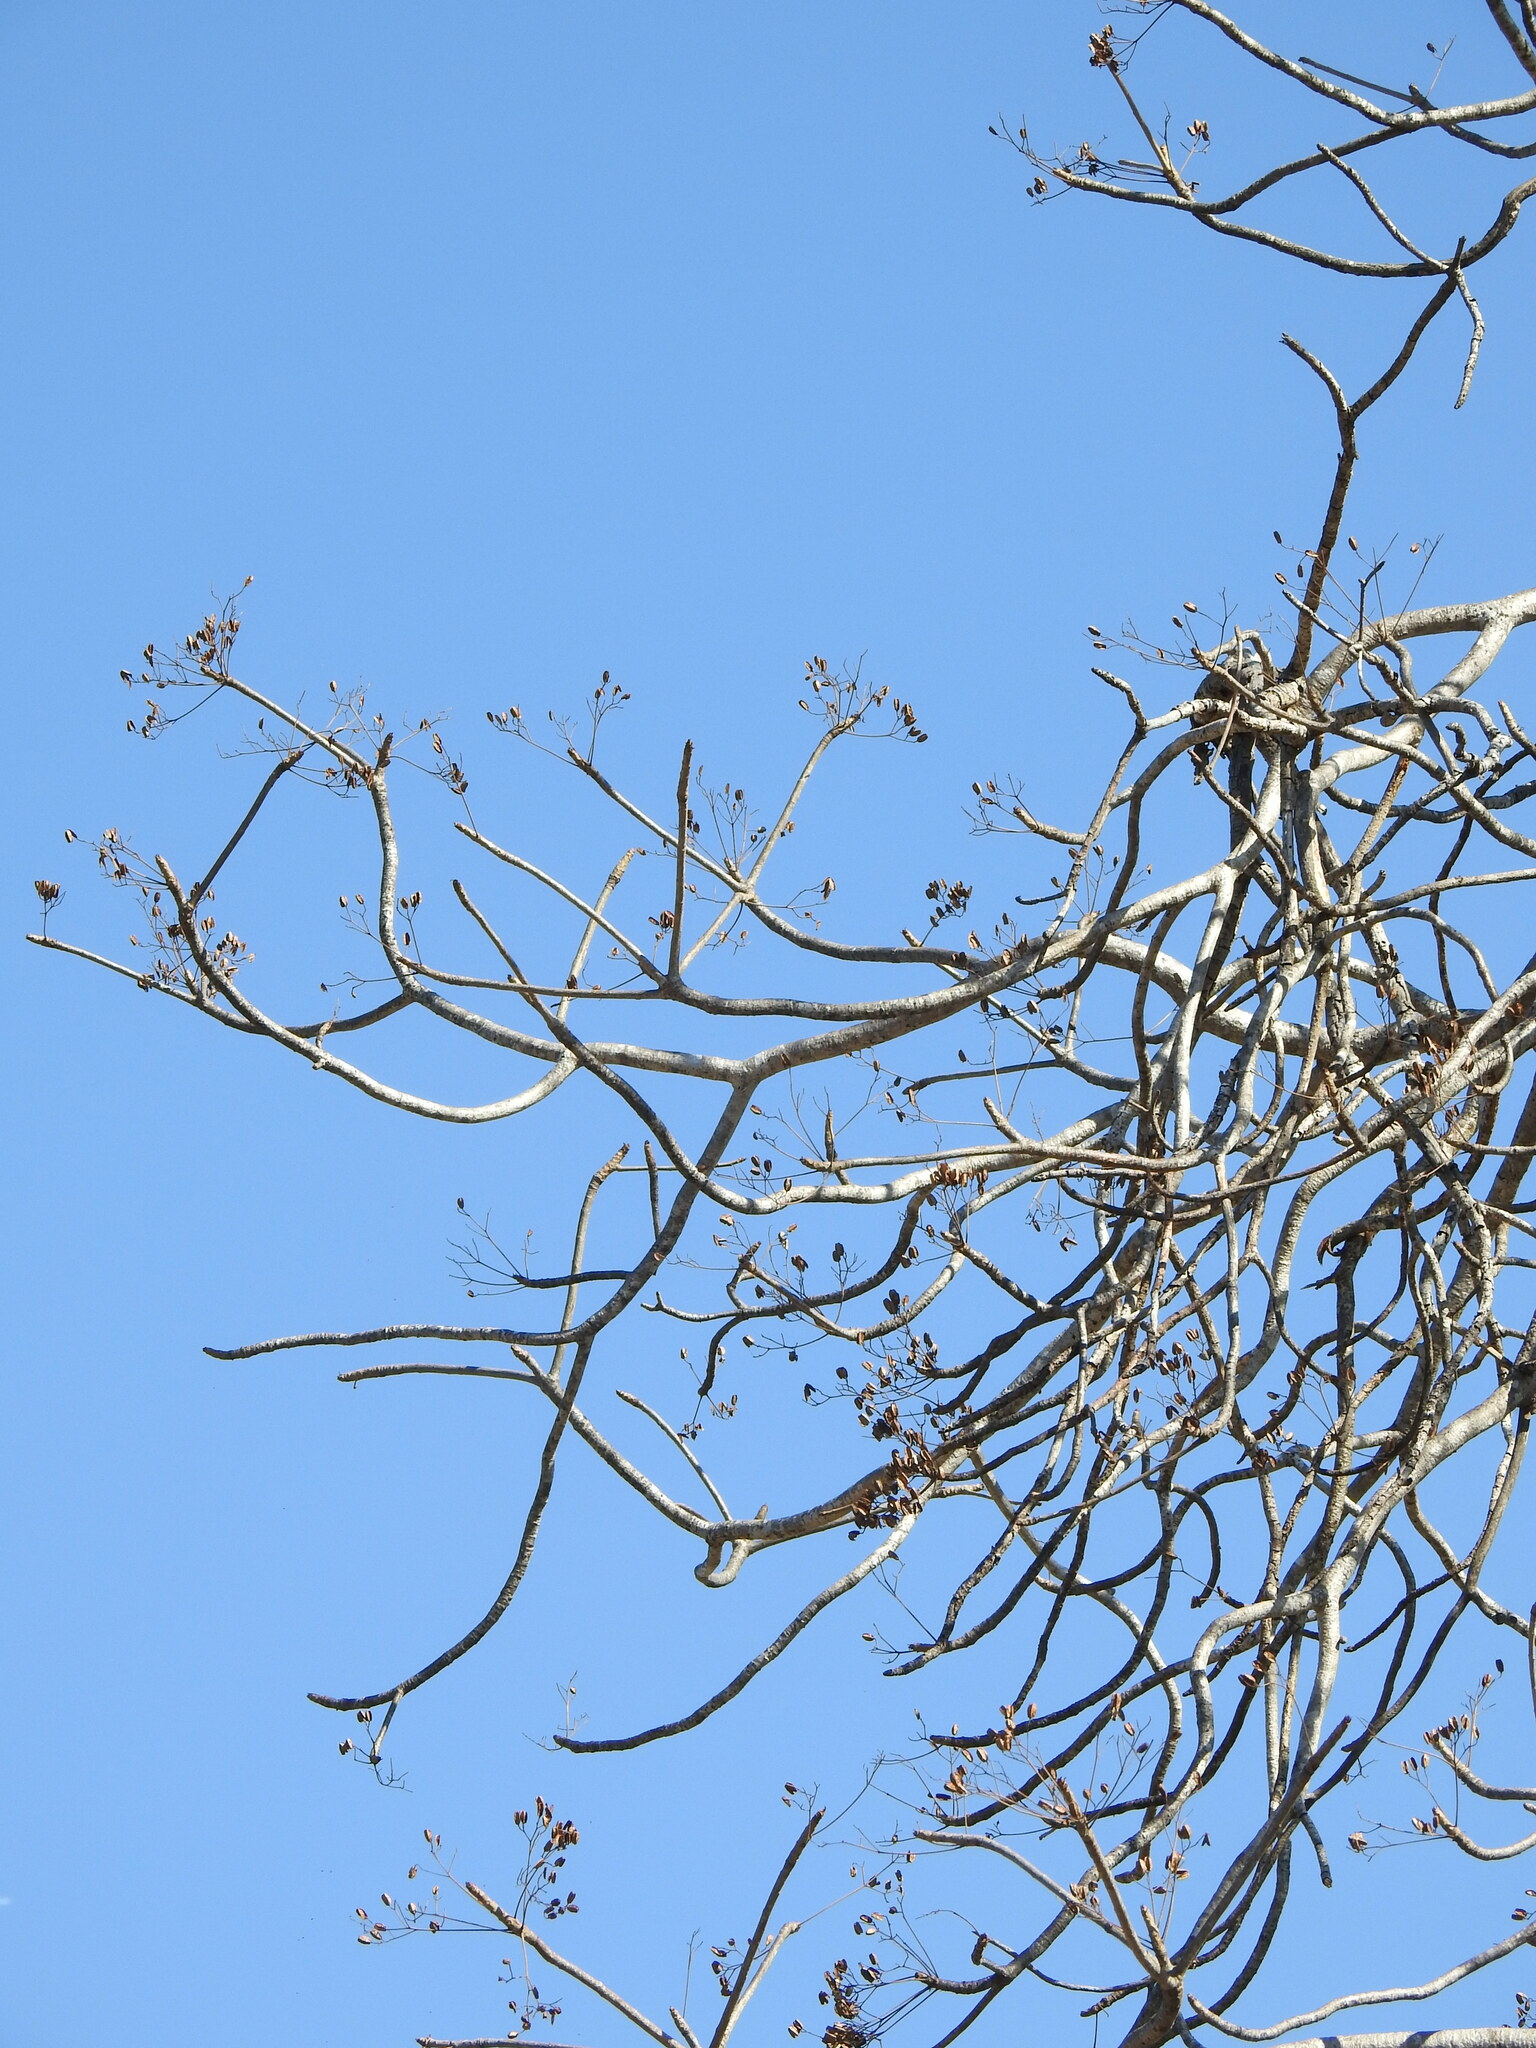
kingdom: Plantae
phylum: Tracheophyta
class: Magnoliopsida
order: Sapindales
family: Kirkiaceae
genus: Kirkia
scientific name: Kirkia acuminata
